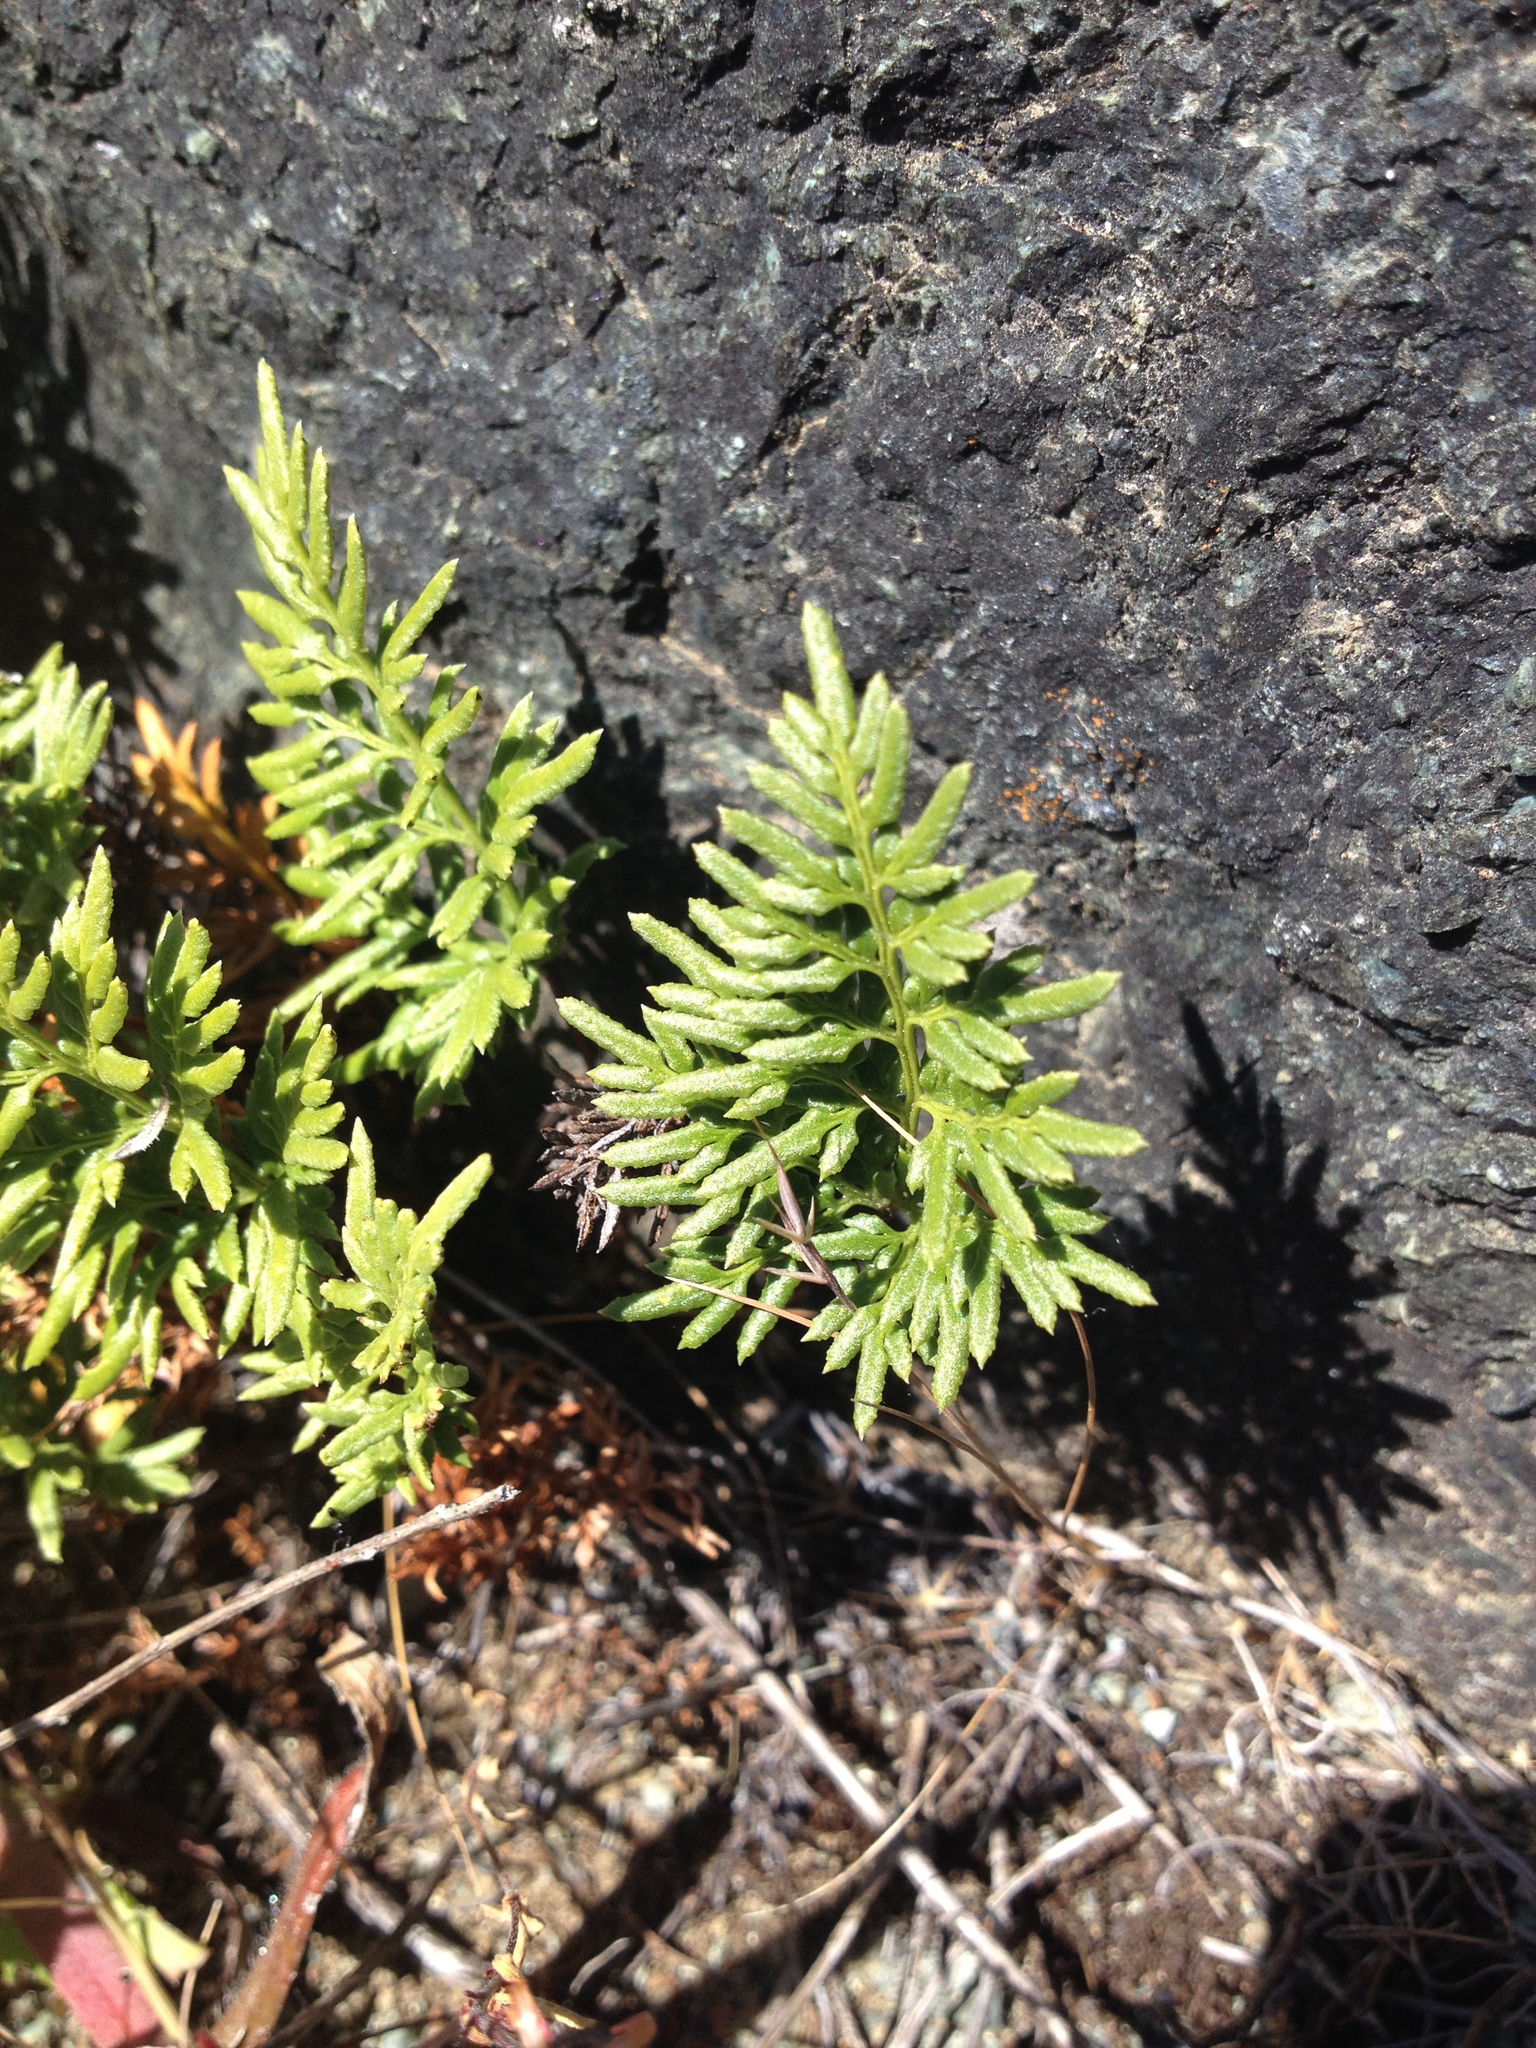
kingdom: Plantae
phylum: Tracheophyta
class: Polypodiopsida
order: Polypodiales
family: Pteridaceae
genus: Aspidotis
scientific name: Aspidotis densa
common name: Indian's dream
